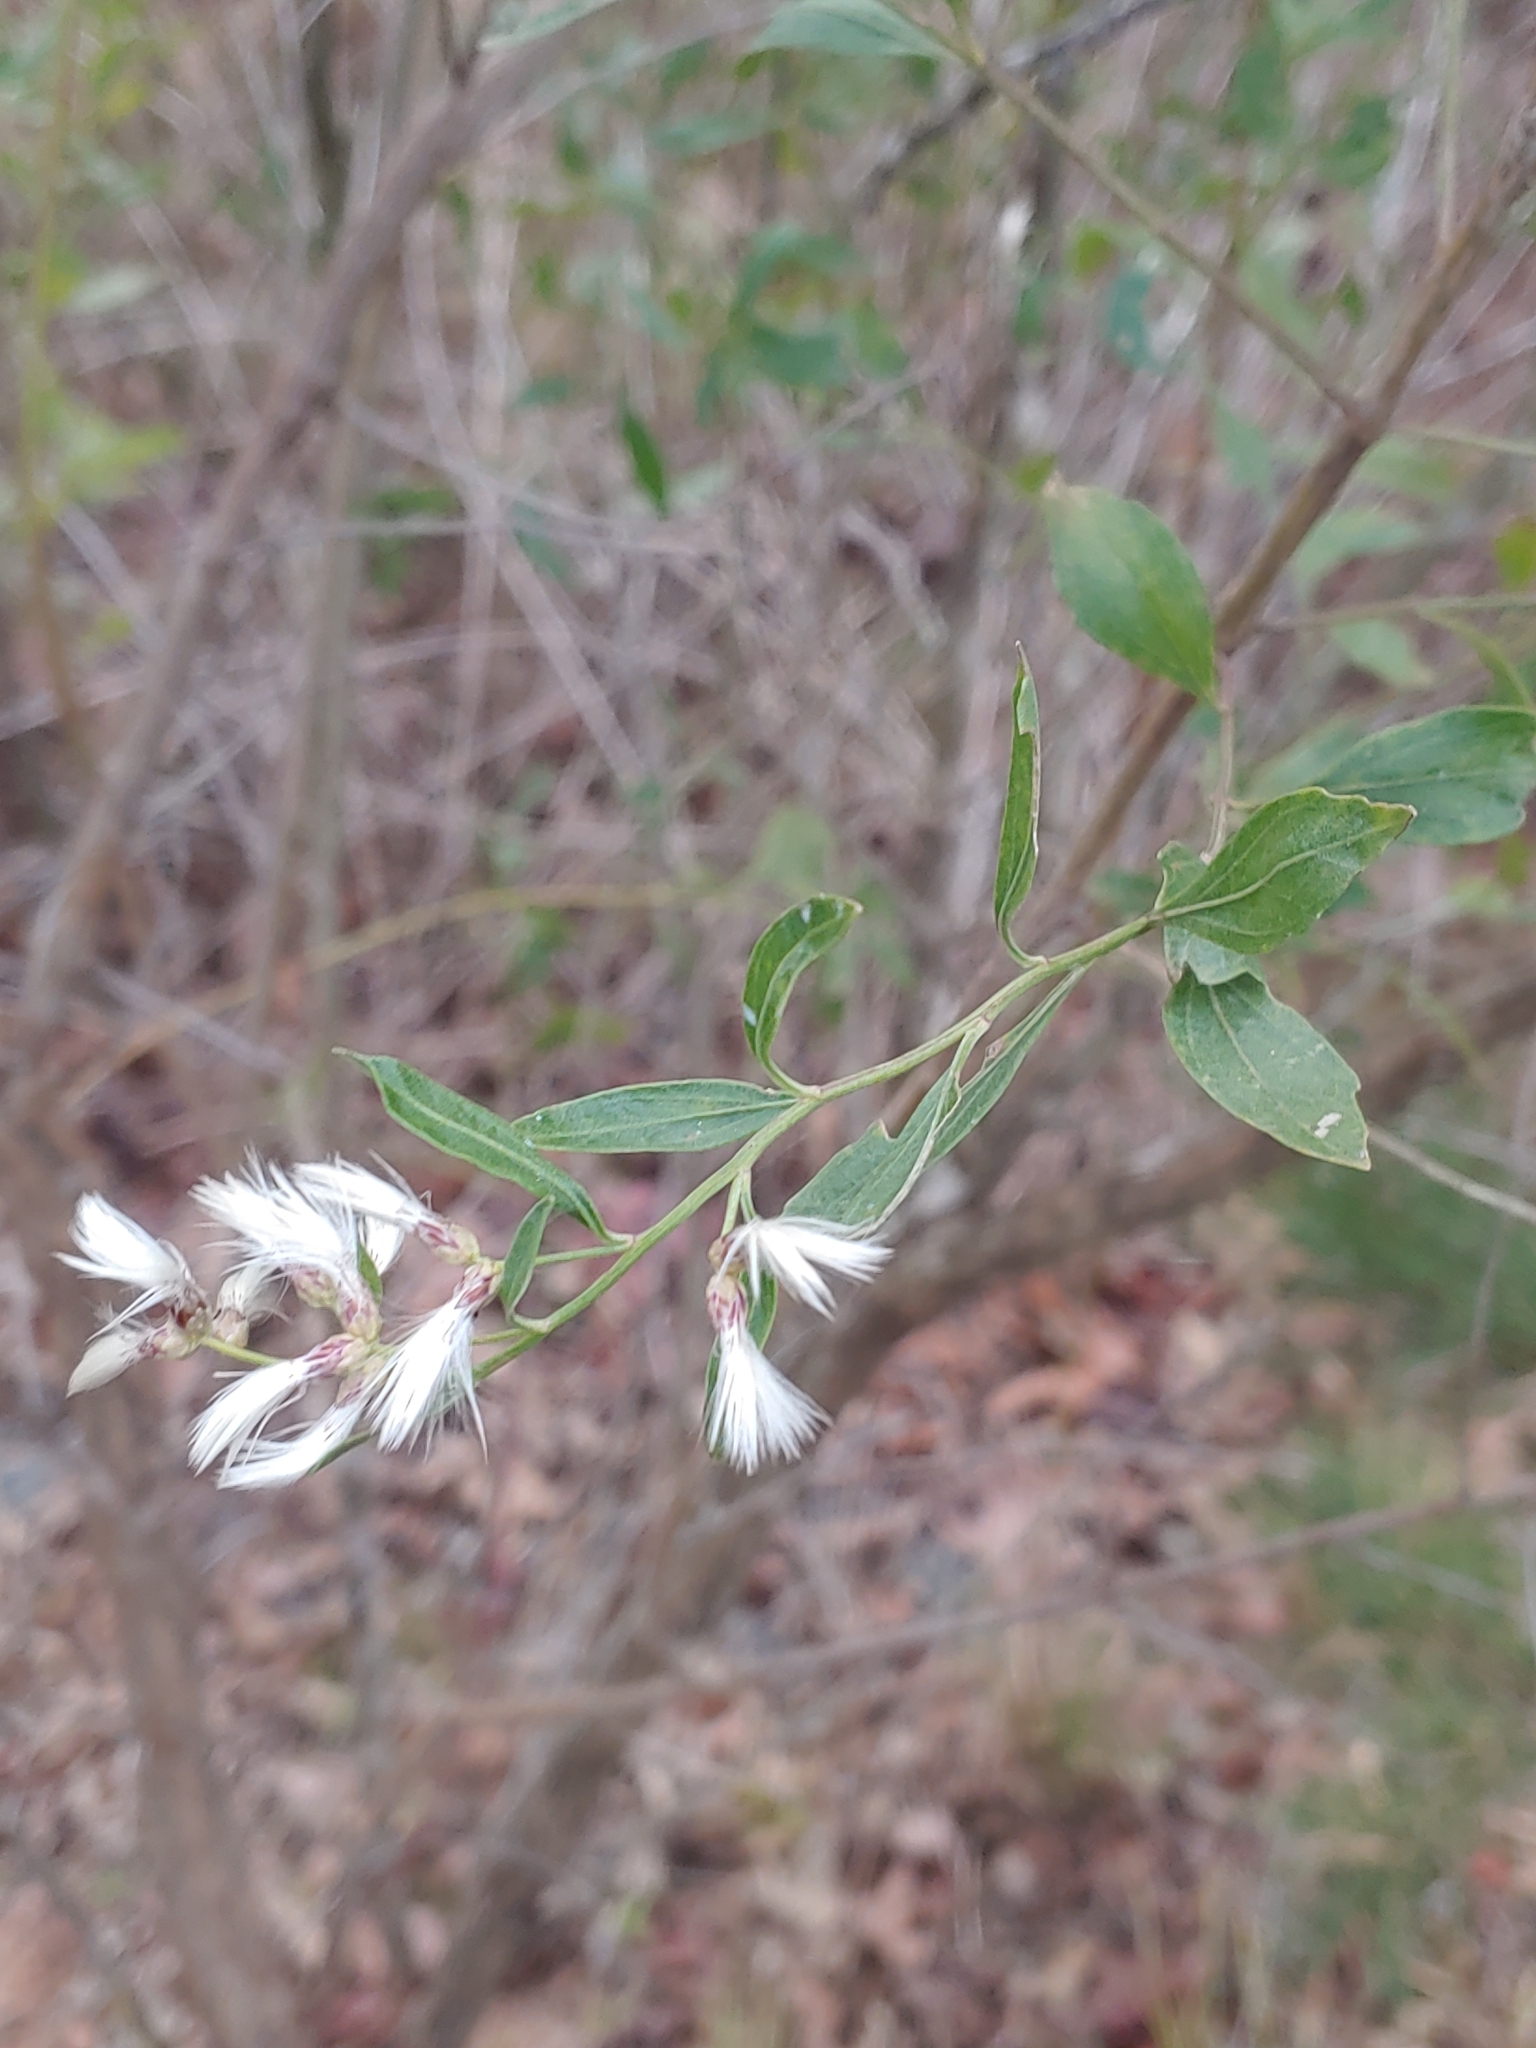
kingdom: Plantae
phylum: Tracheophyta
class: Magnoliopsida
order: Asterales
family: Asteraceae
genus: Baccharis
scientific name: Baccharis halimifolia
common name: Eastern baccharis
